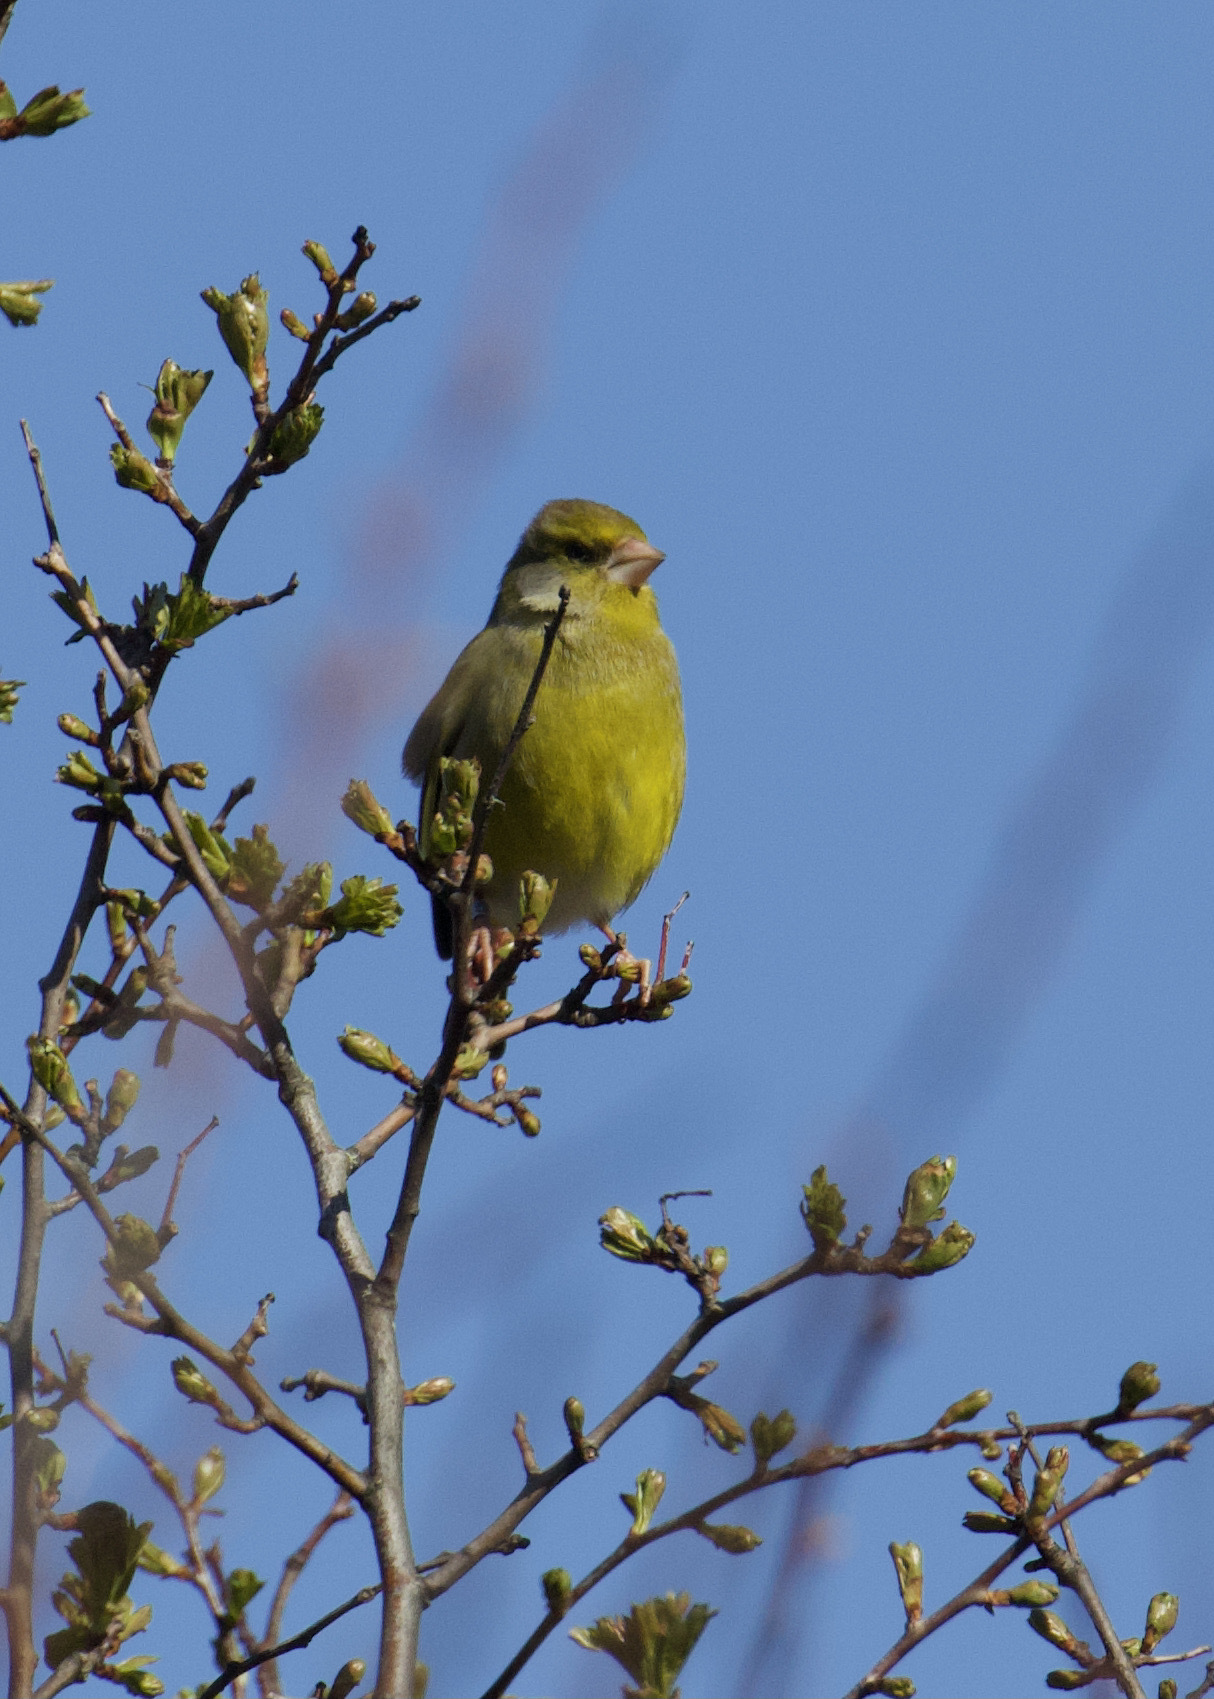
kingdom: Plantae
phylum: Tracheophyta
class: Liliopsida
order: Poales
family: Poaceae
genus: Chloris
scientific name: Chloris chloris
